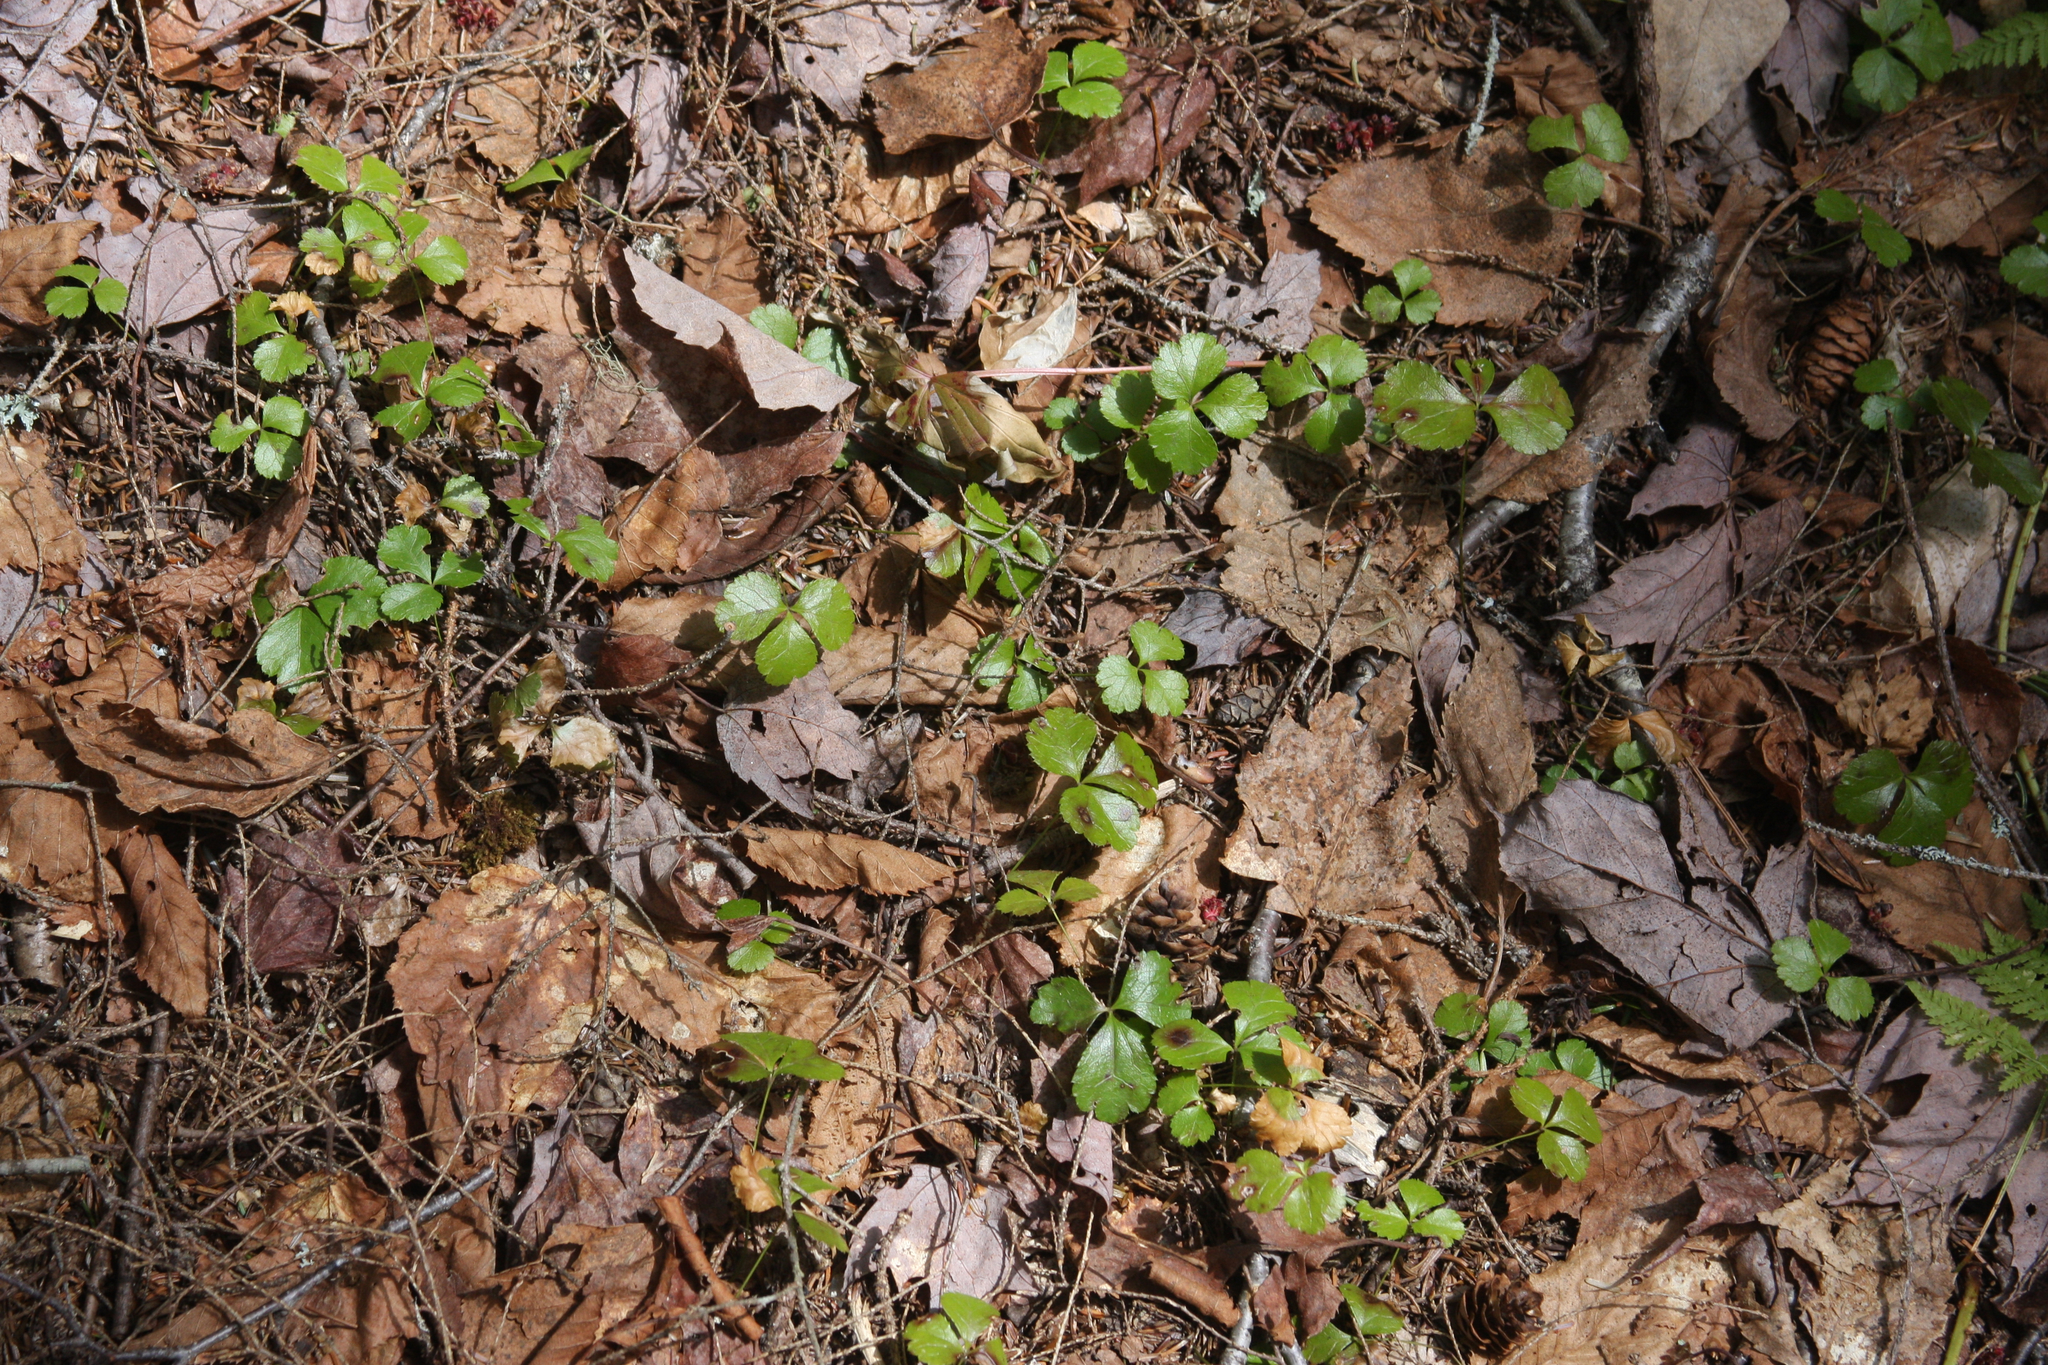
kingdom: Plantae
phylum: Tracheophyta
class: Magnoliopsida
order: Ranunculales
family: Ranunculaceae
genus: Coptis
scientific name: Coptis trifolia
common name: Canker-root
